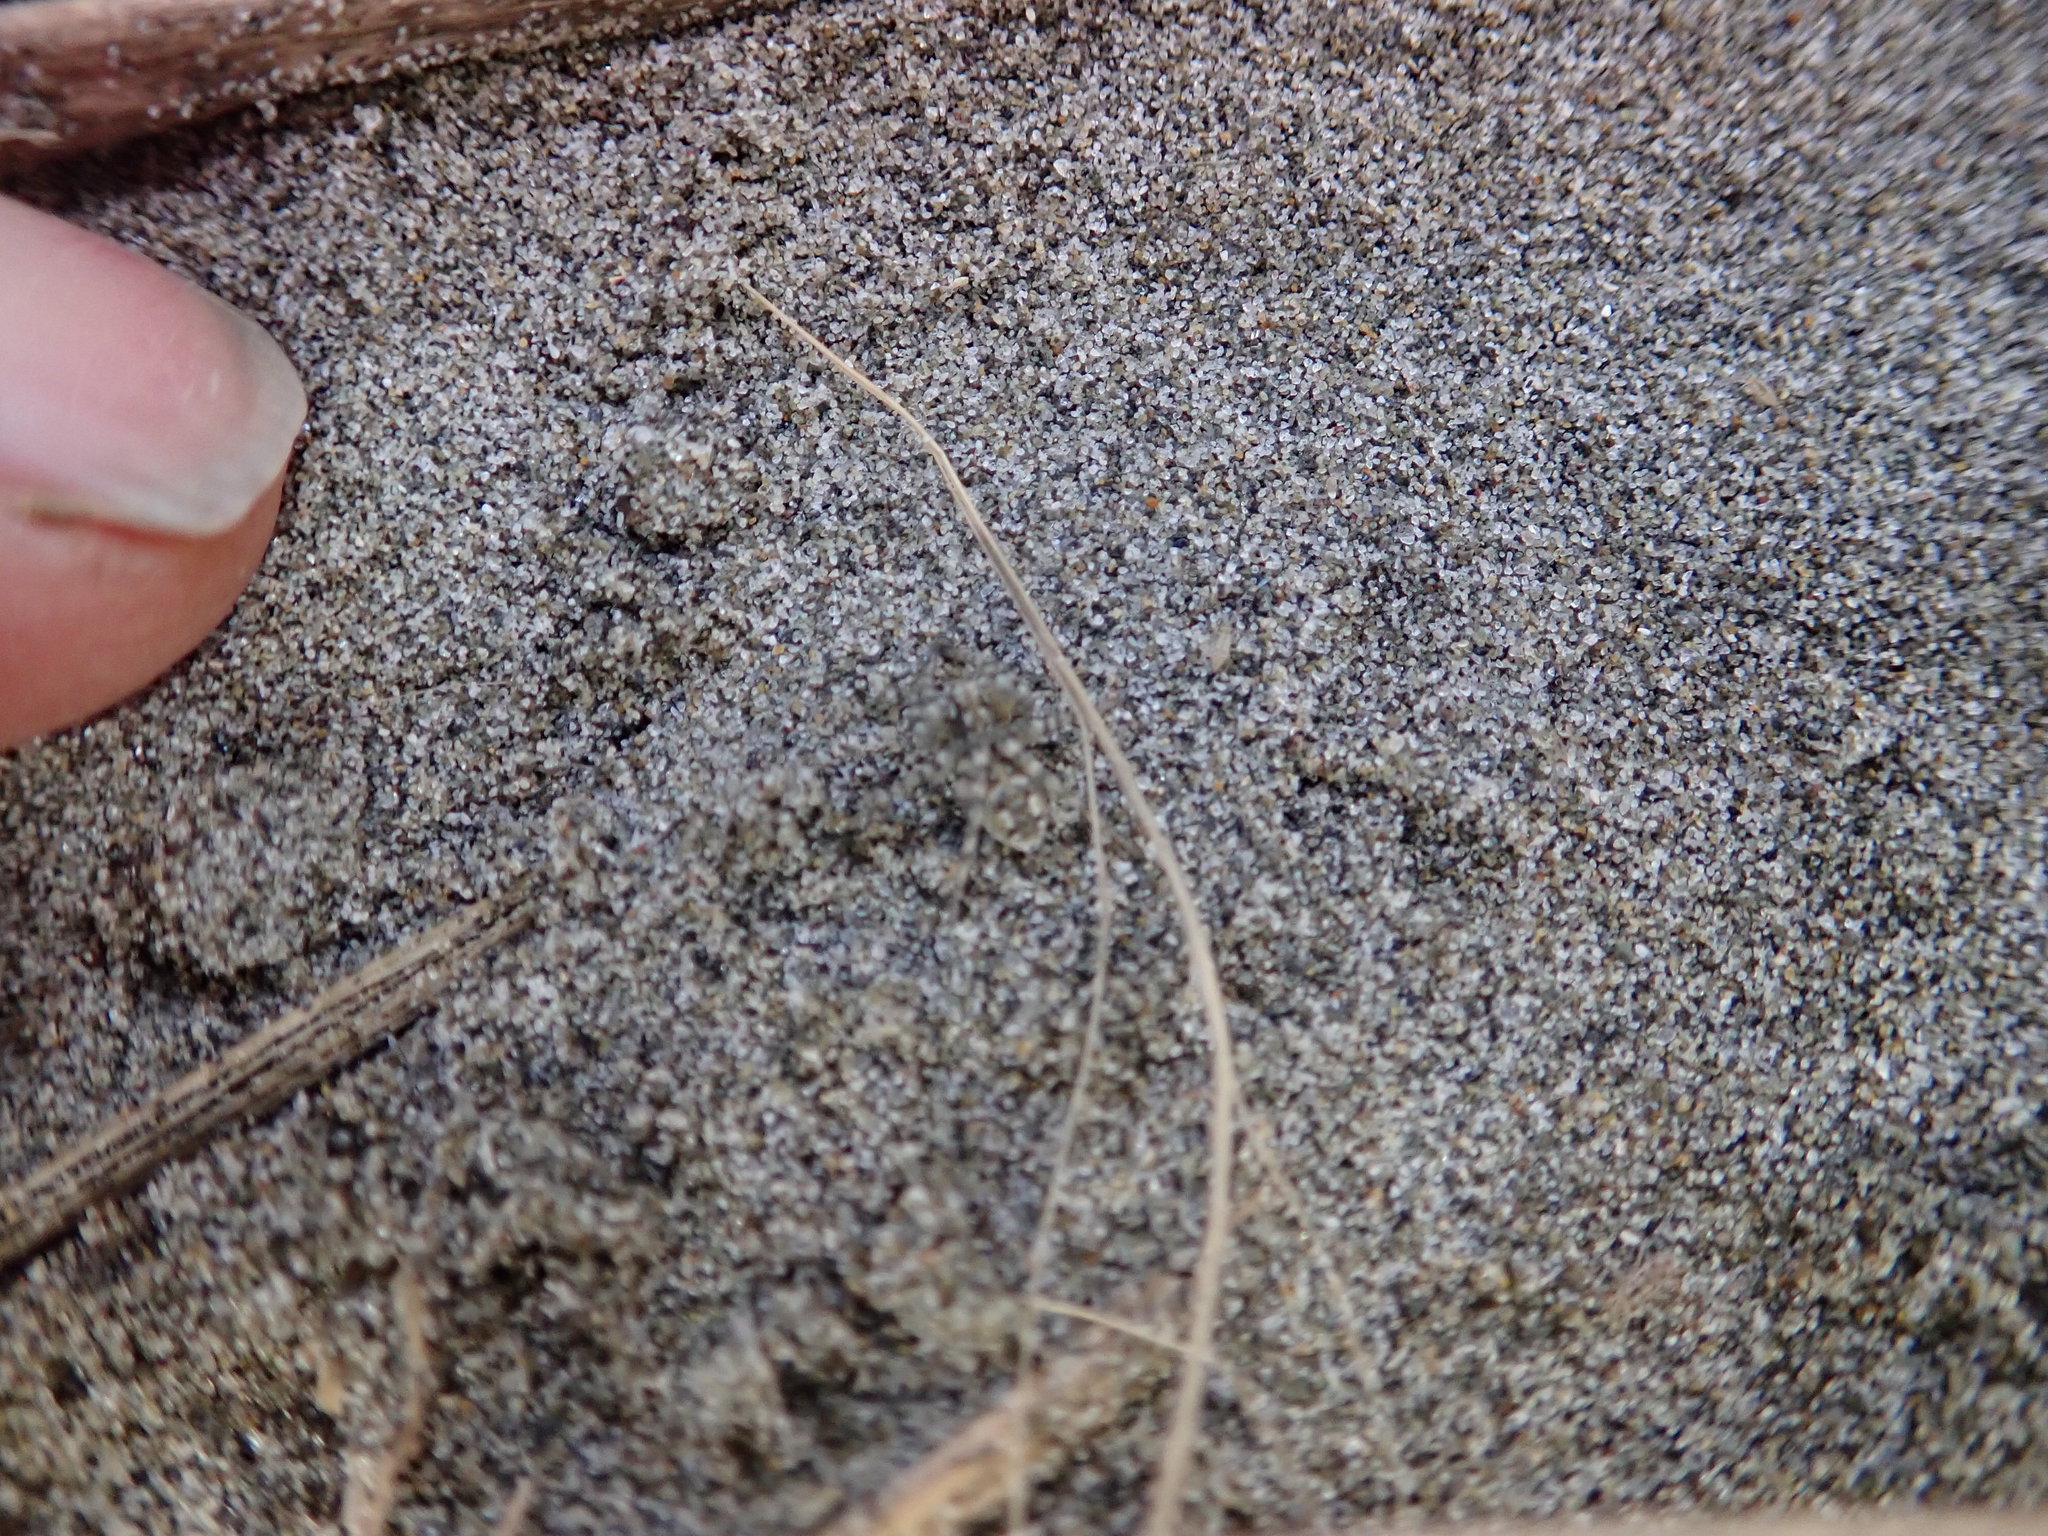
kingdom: Animalia
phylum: Arthropoda
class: Arachnida
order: Araneae
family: Lycosidae
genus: Anoteropsis
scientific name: Anoteropsis litoralis
